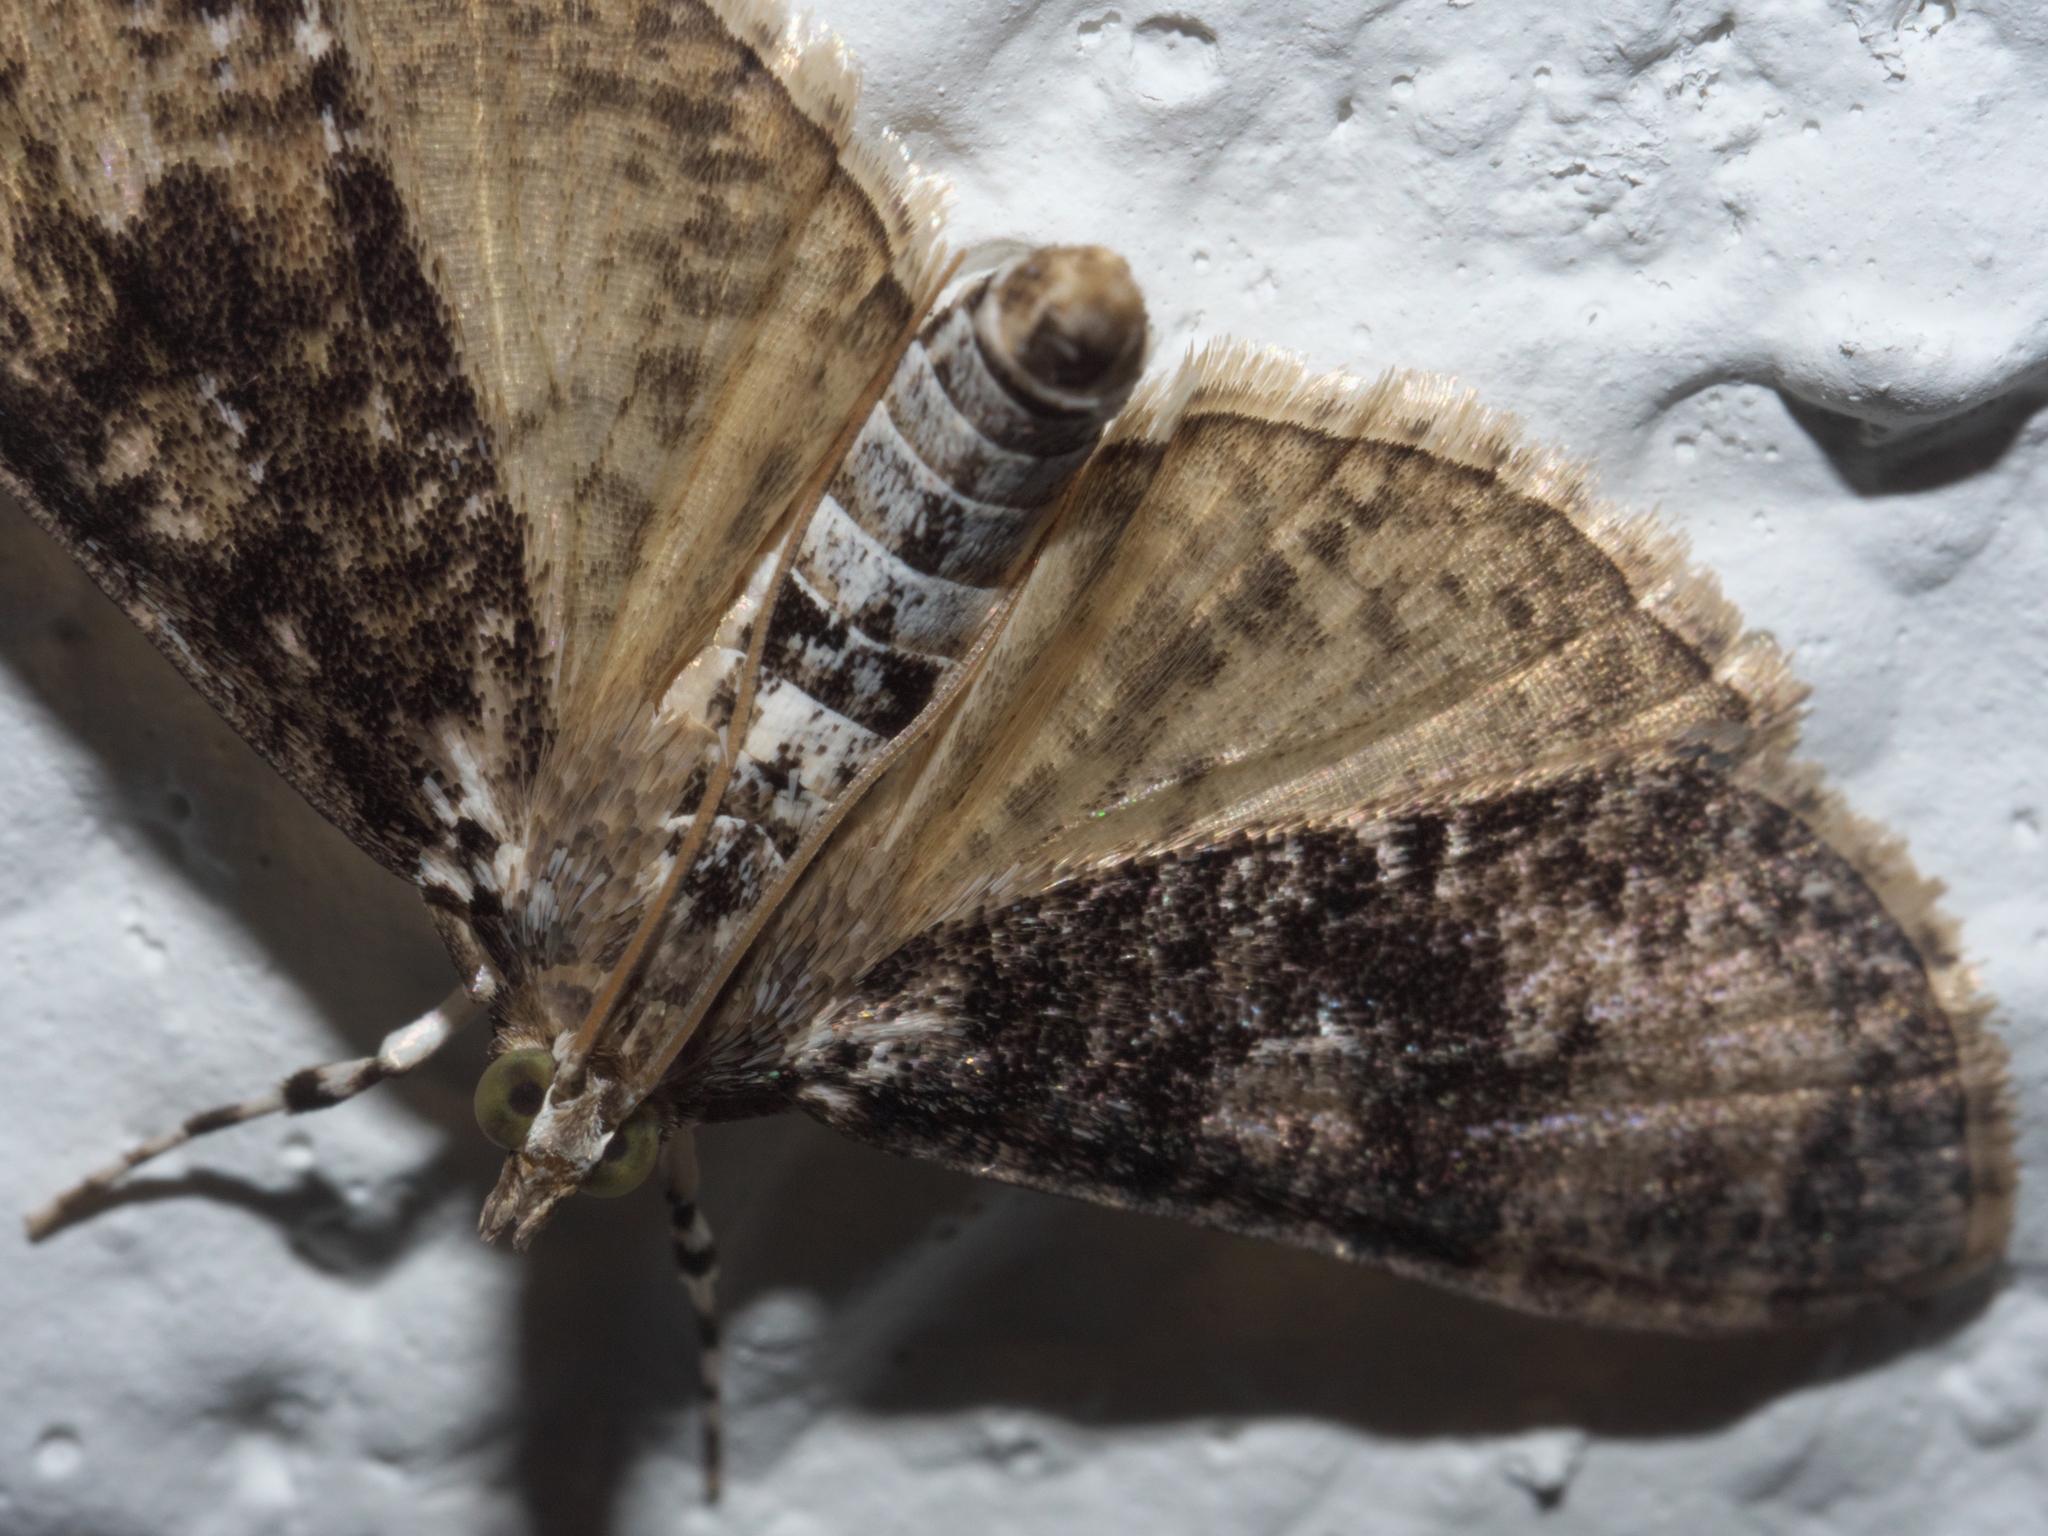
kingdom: Animalia
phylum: Arthropoda
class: Insecta
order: Lepidoptera
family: Crambidae
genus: Palpita
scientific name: Palpita magniferalis
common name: Splendid palpita moth
